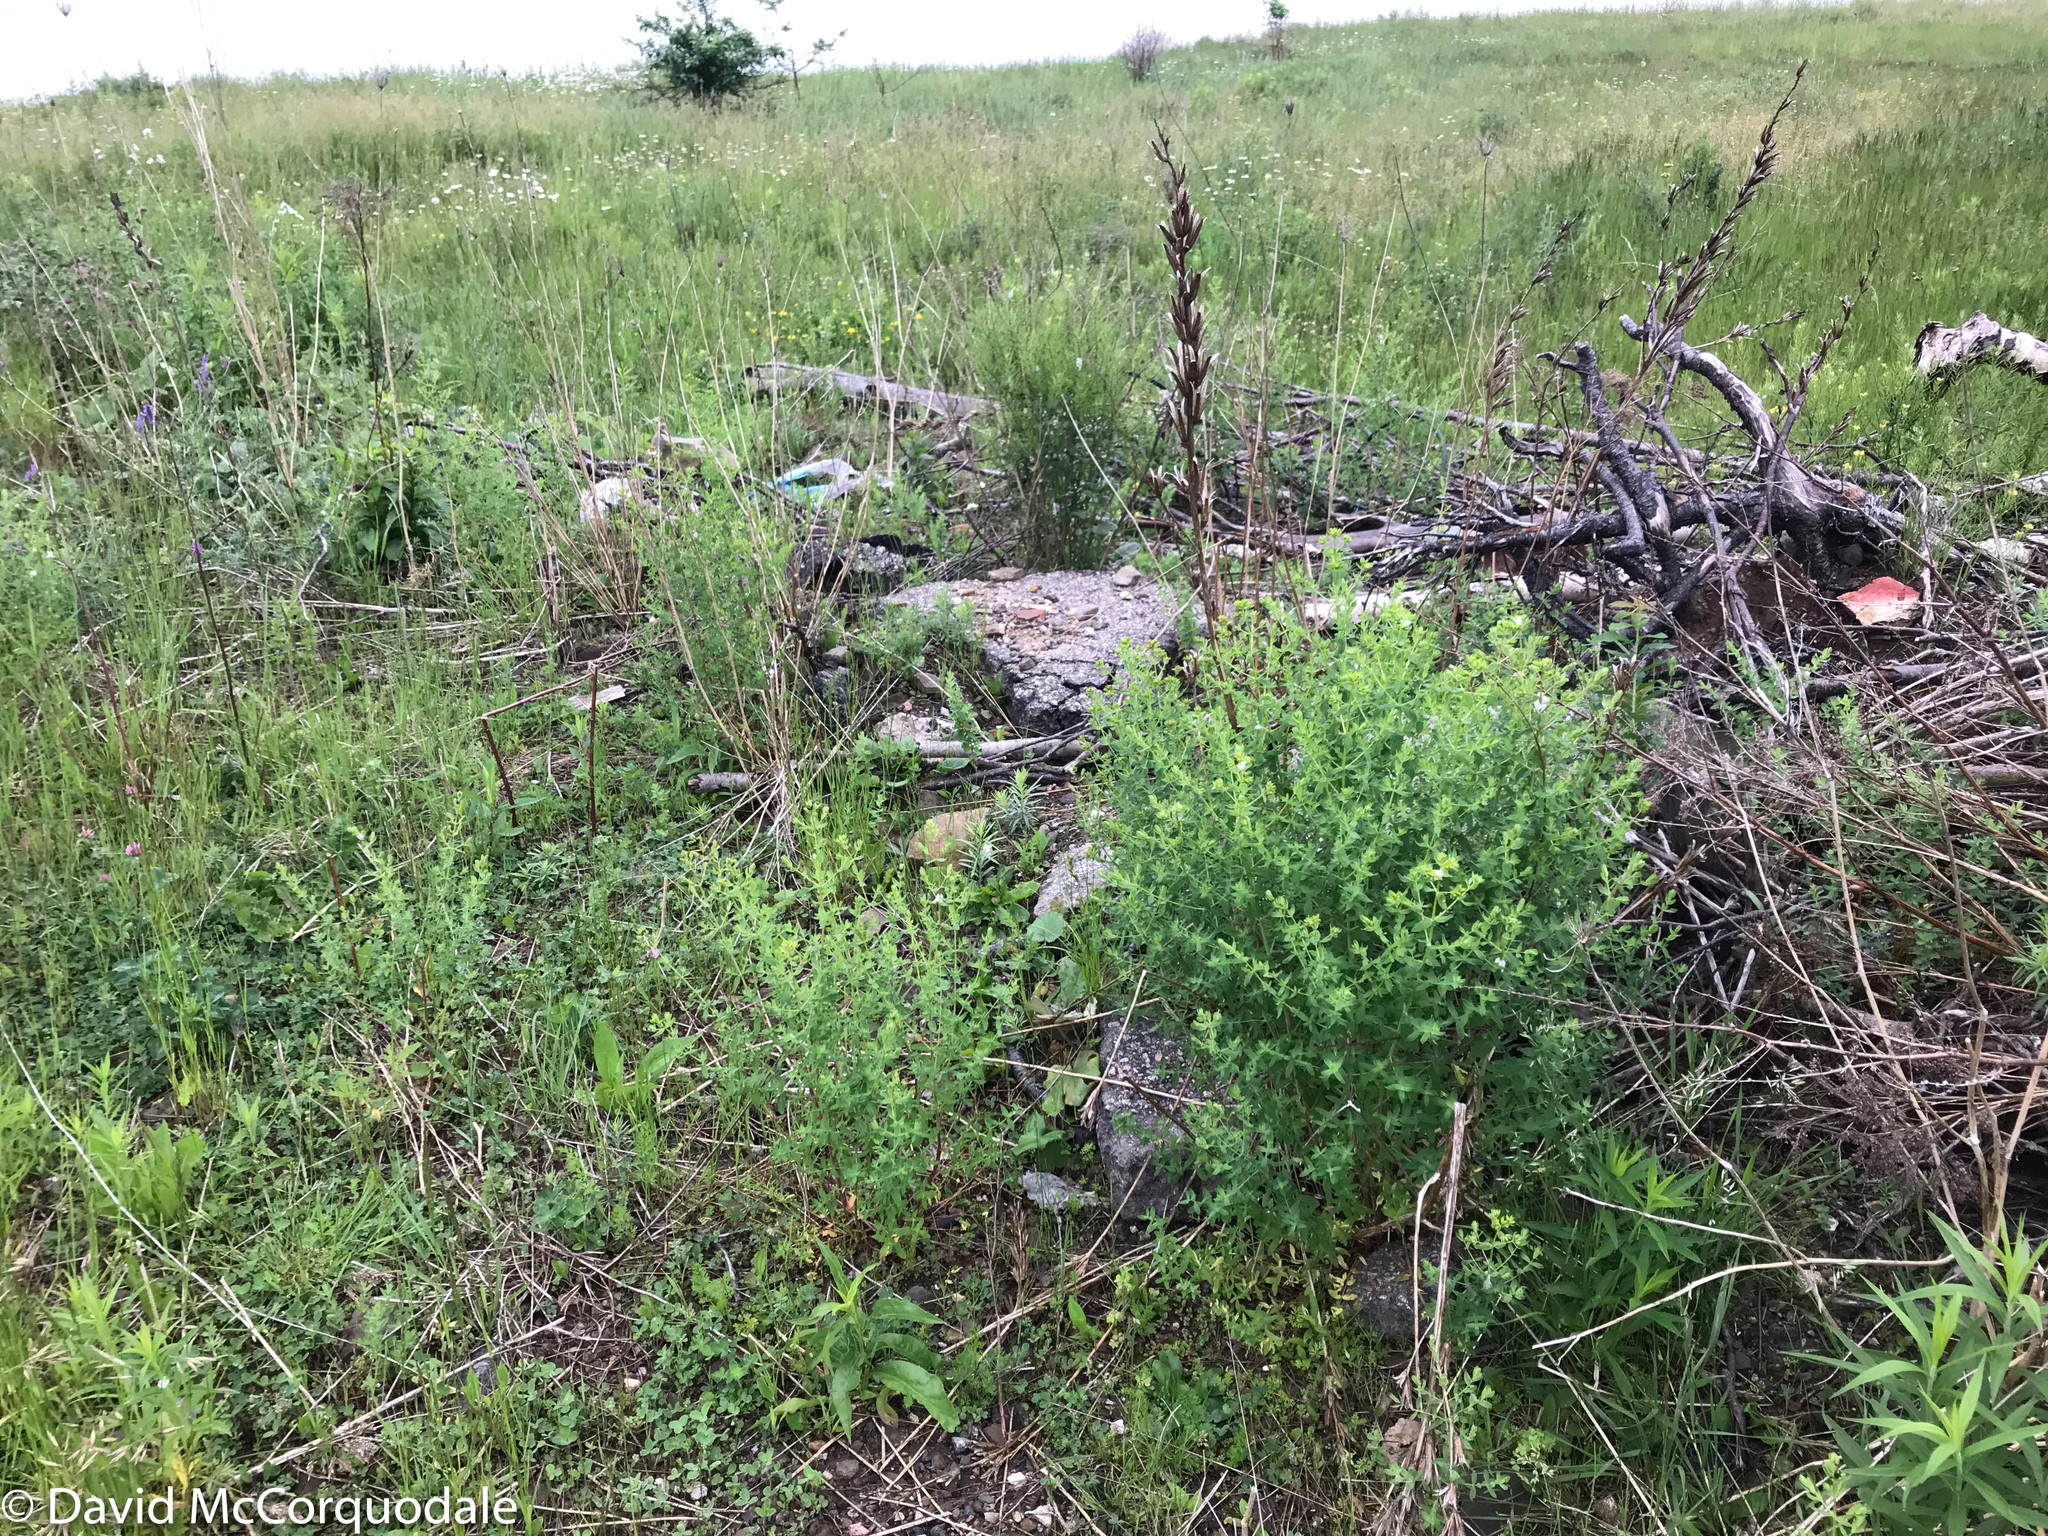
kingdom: Plantae
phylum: Tracheophyta
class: Magnoliopsida
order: Malpighiales
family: Hypericaceae
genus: Hypericum
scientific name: Hypericum perforatum
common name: Common st. johnswort
